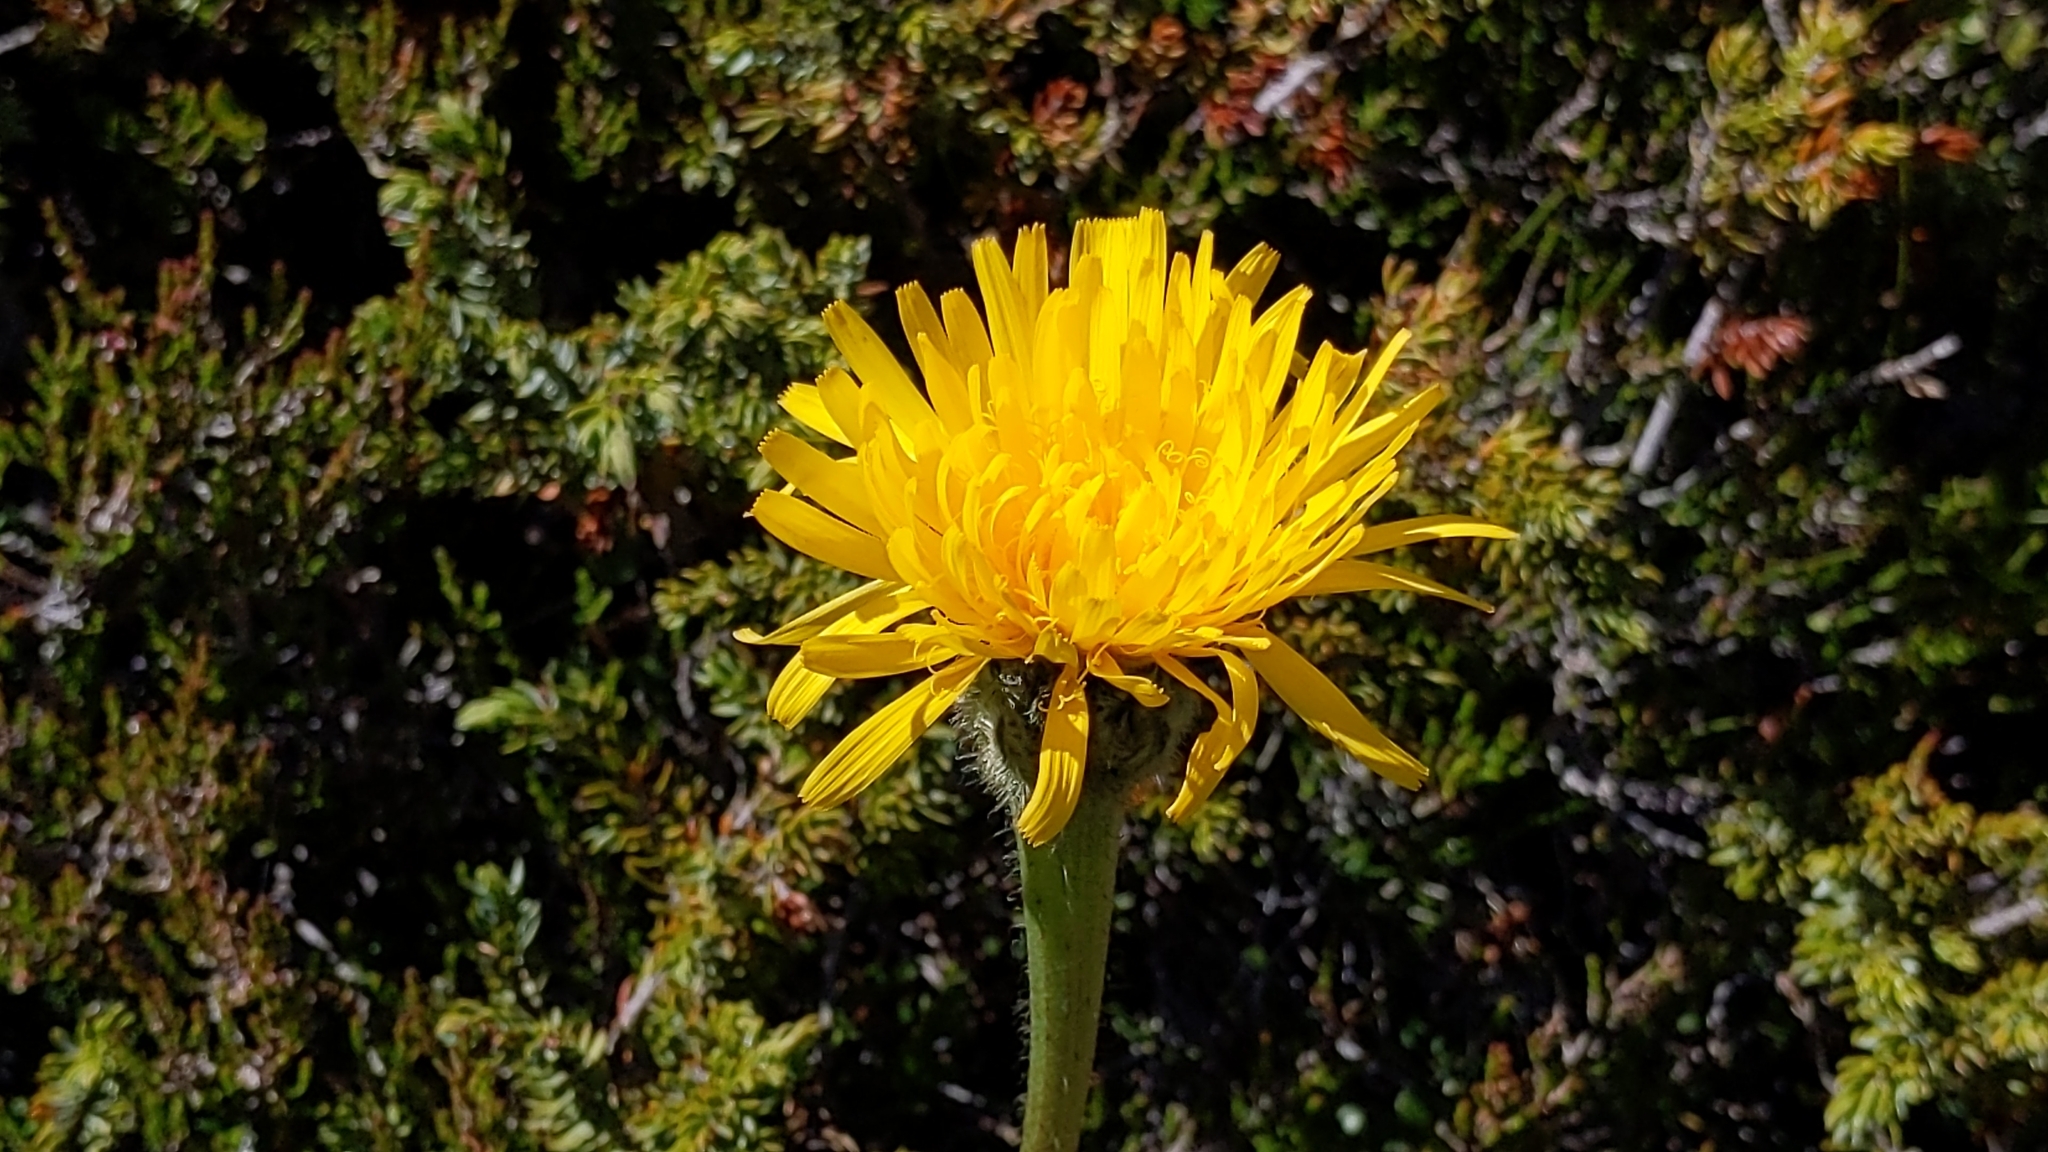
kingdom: Plantae
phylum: Tracheophyta
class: Magnoliopsida
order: Asterales
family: Asteraceae
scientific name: Asteraceae
